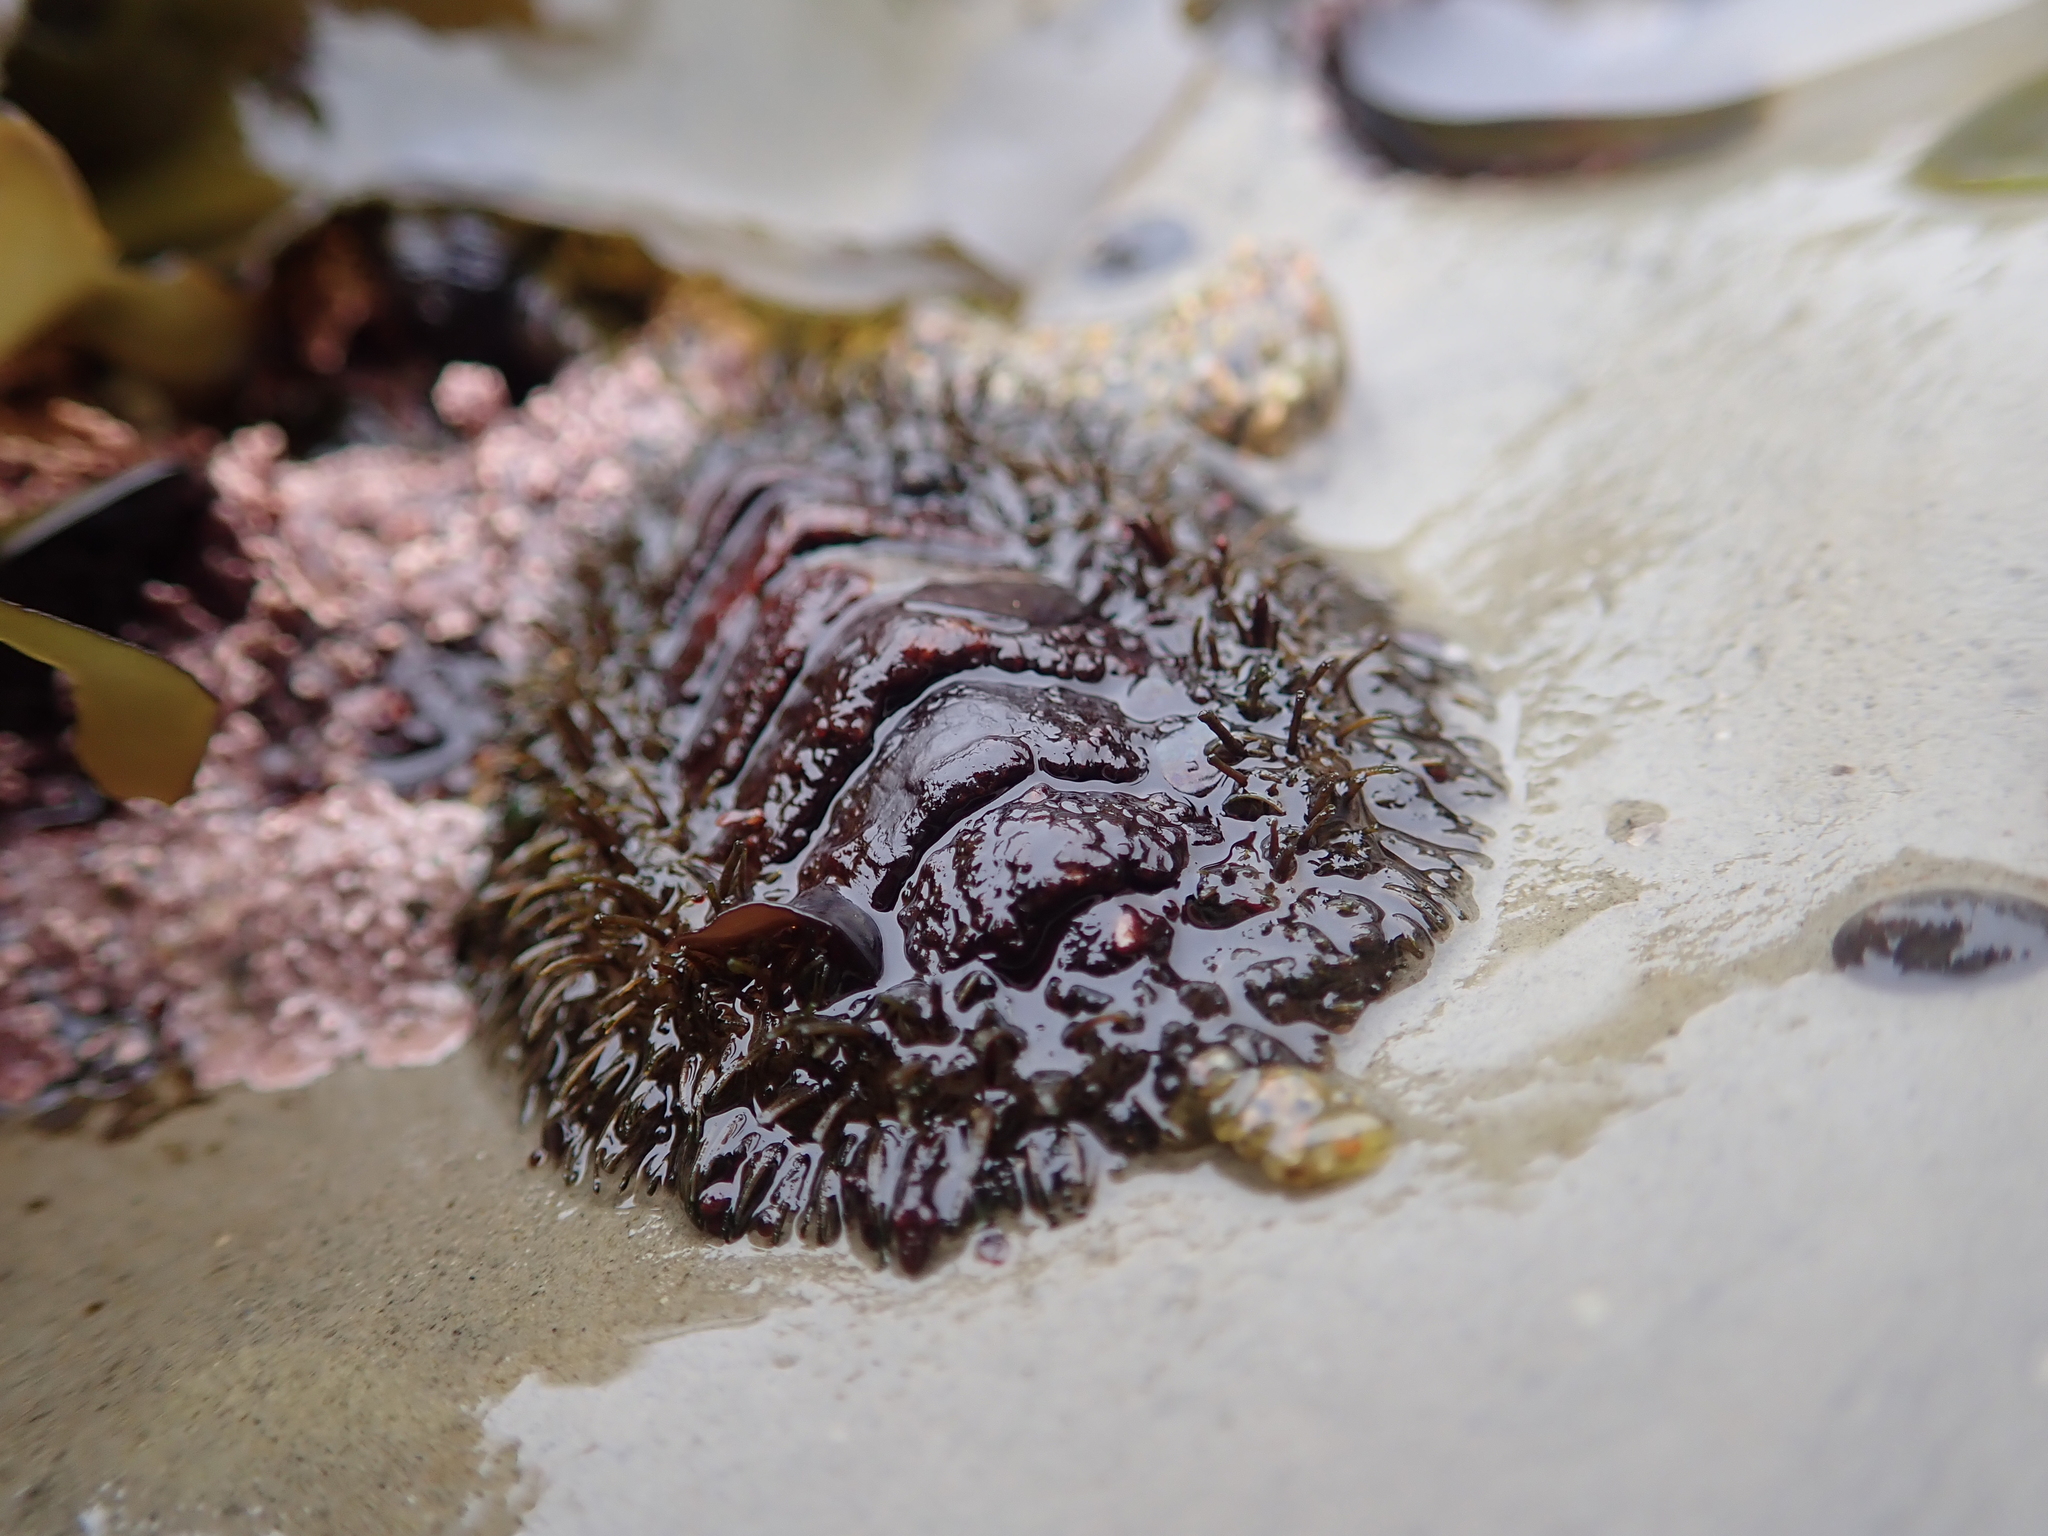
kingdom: Animalia
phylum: Mollusca
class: Polyplacophora
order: Chitonida
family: Mopaliidae
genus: Mopalia
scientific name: Mopalia muscosa
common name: Mossy chiton
